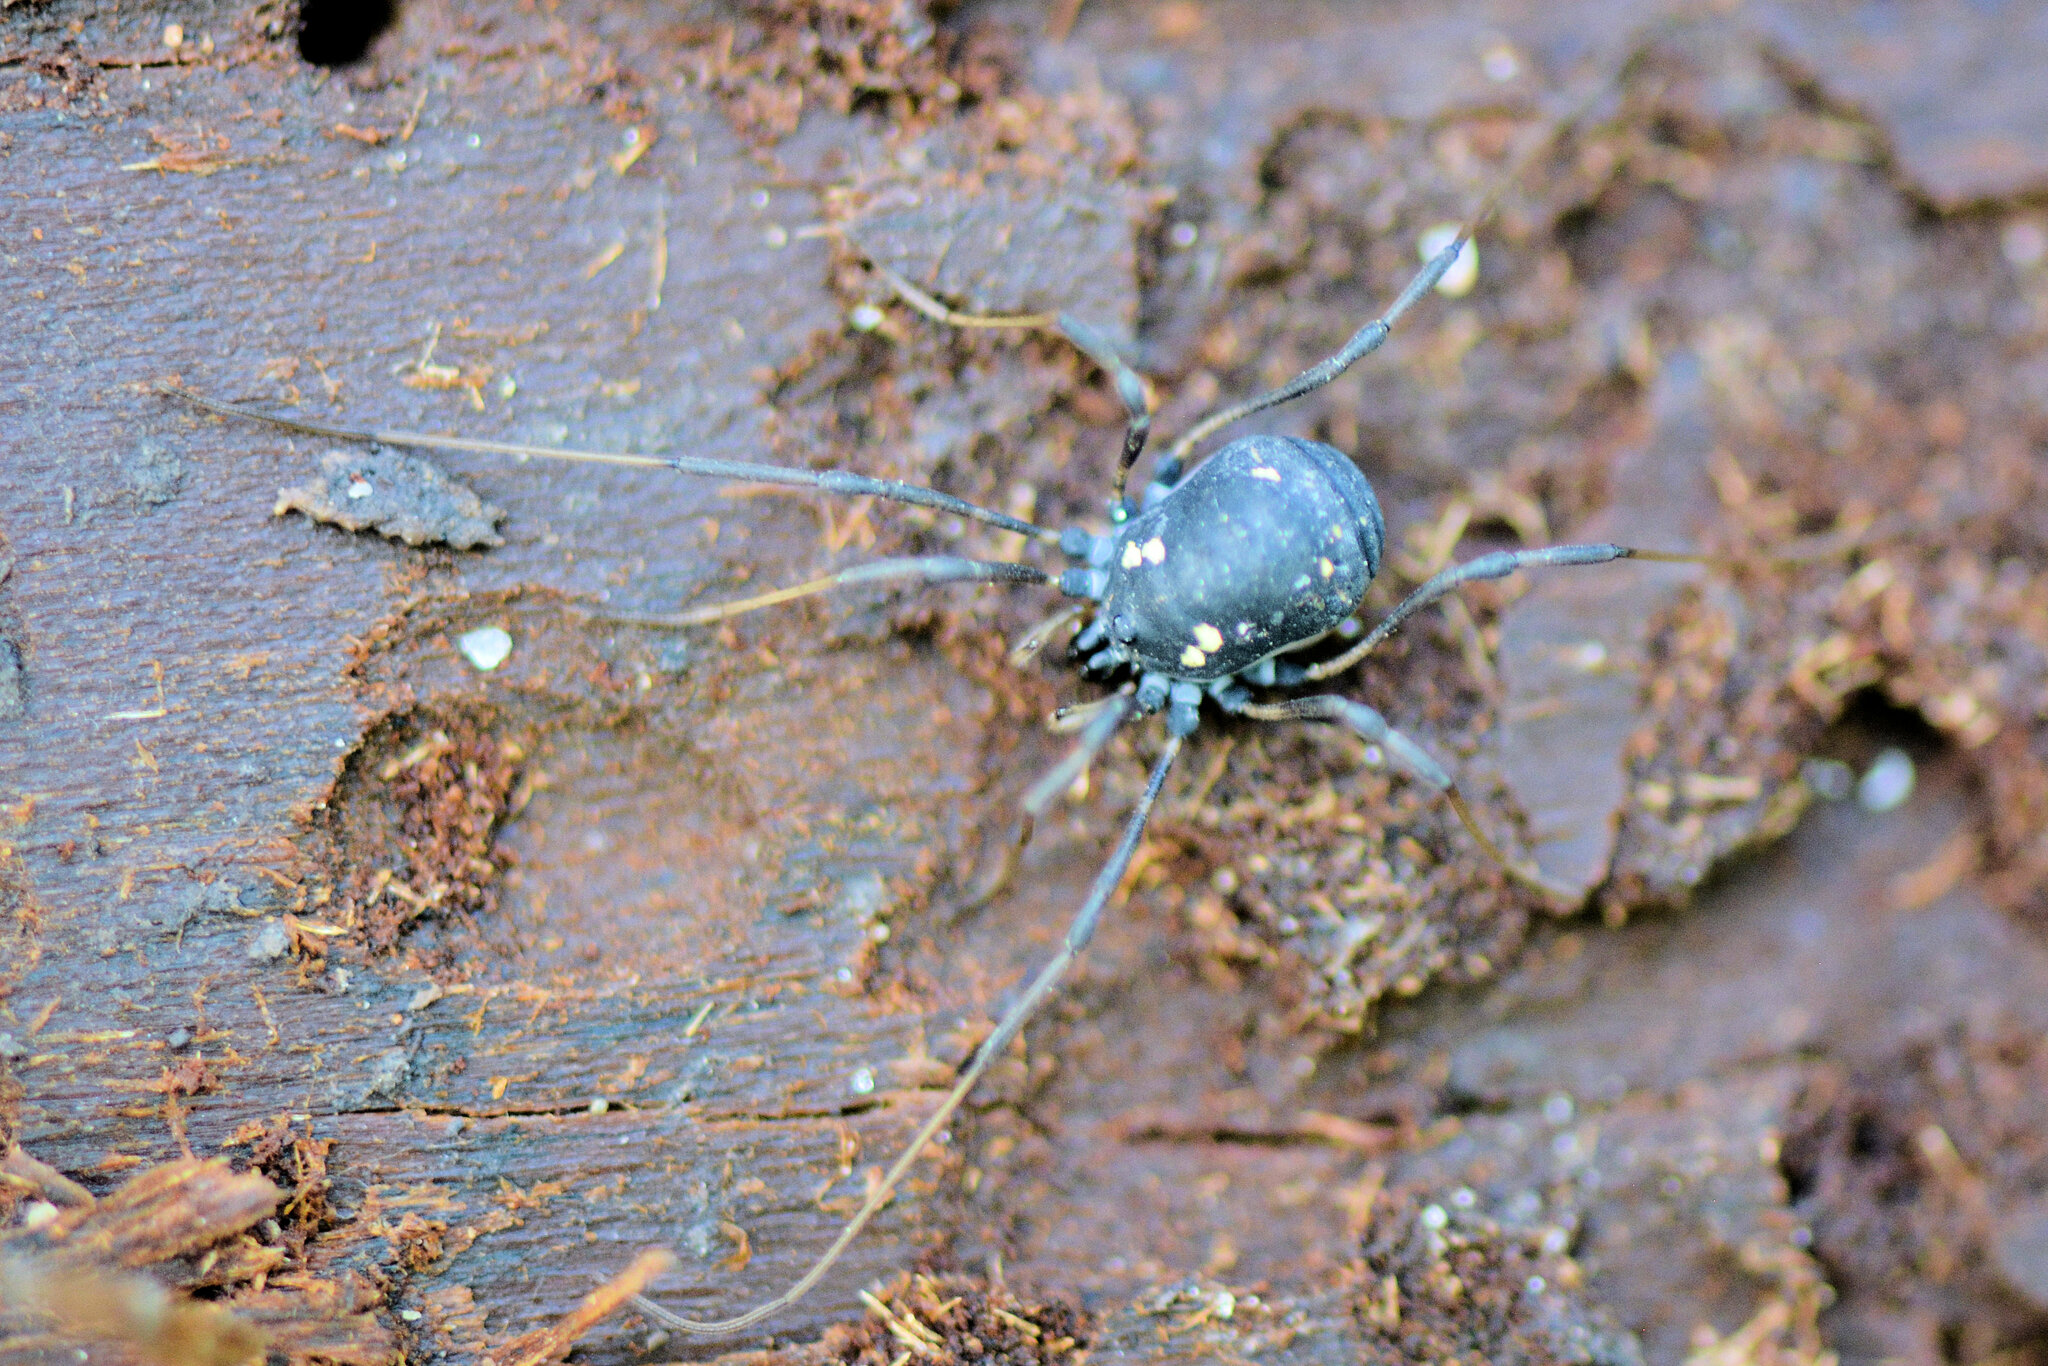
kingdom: Animalia
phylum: Arthropoda
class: Arachnida
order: Opiliones
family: Nemastomatidae
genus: Paranemastoma
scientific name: Paranemastoma quadripunctatum
